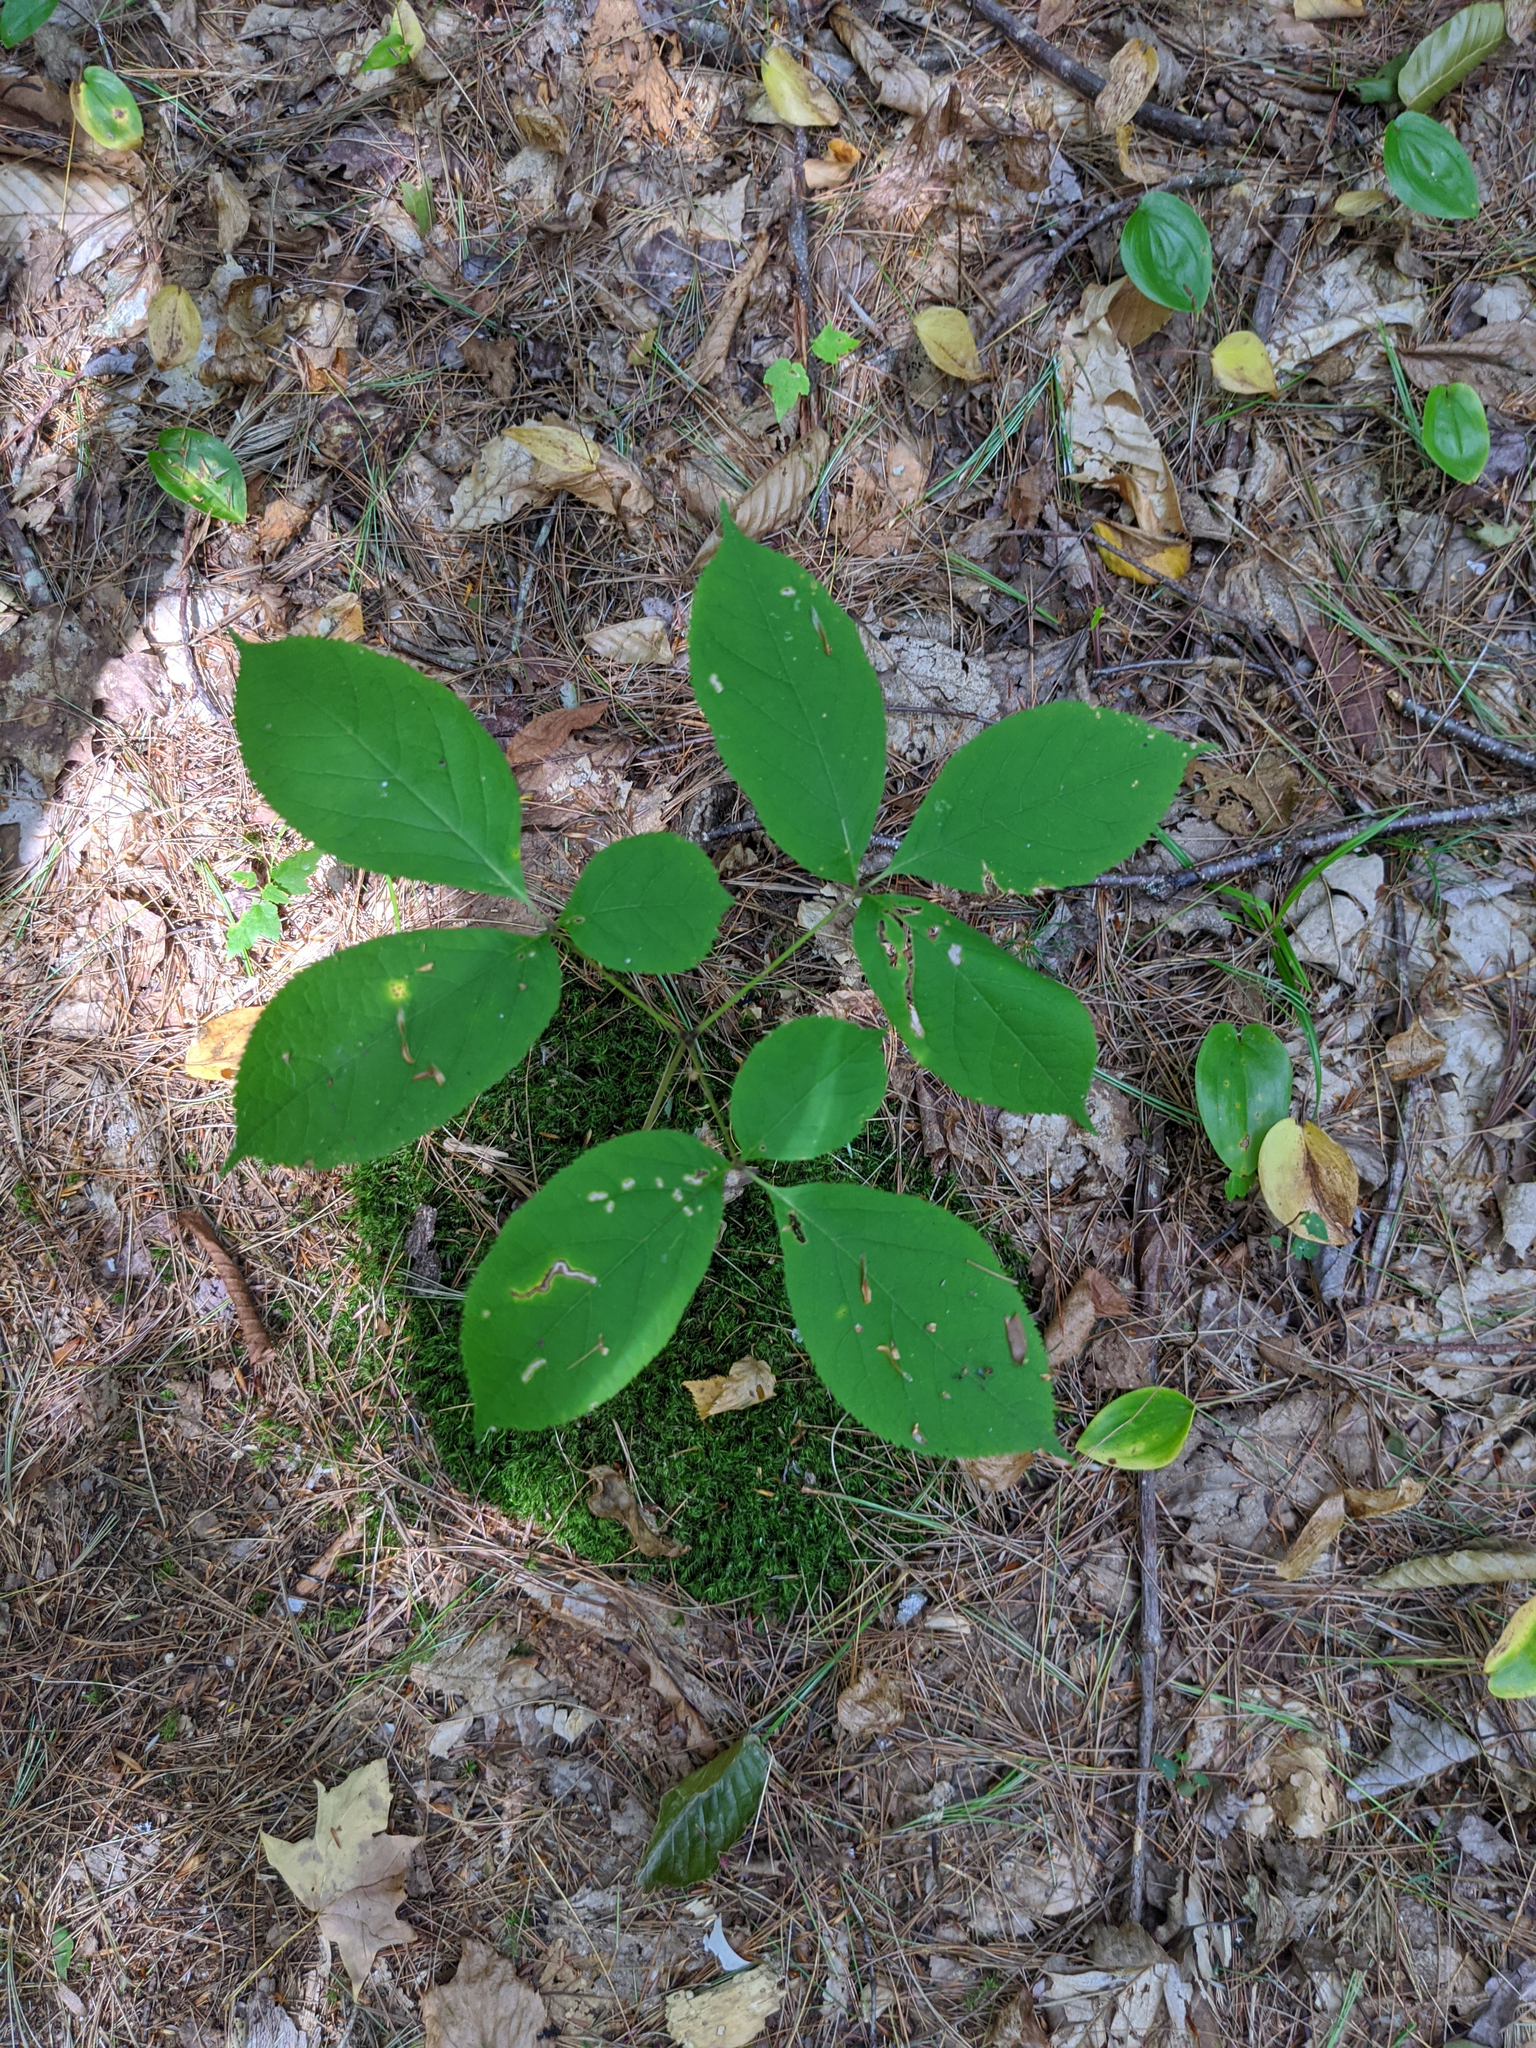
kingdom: Plantae
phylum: Tracheophyta
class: Liliopsida
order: Asparagales
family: Asparagaceae
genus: Maianthemum
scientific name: Maianthemum canadense
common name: False lily-of-the-valley
